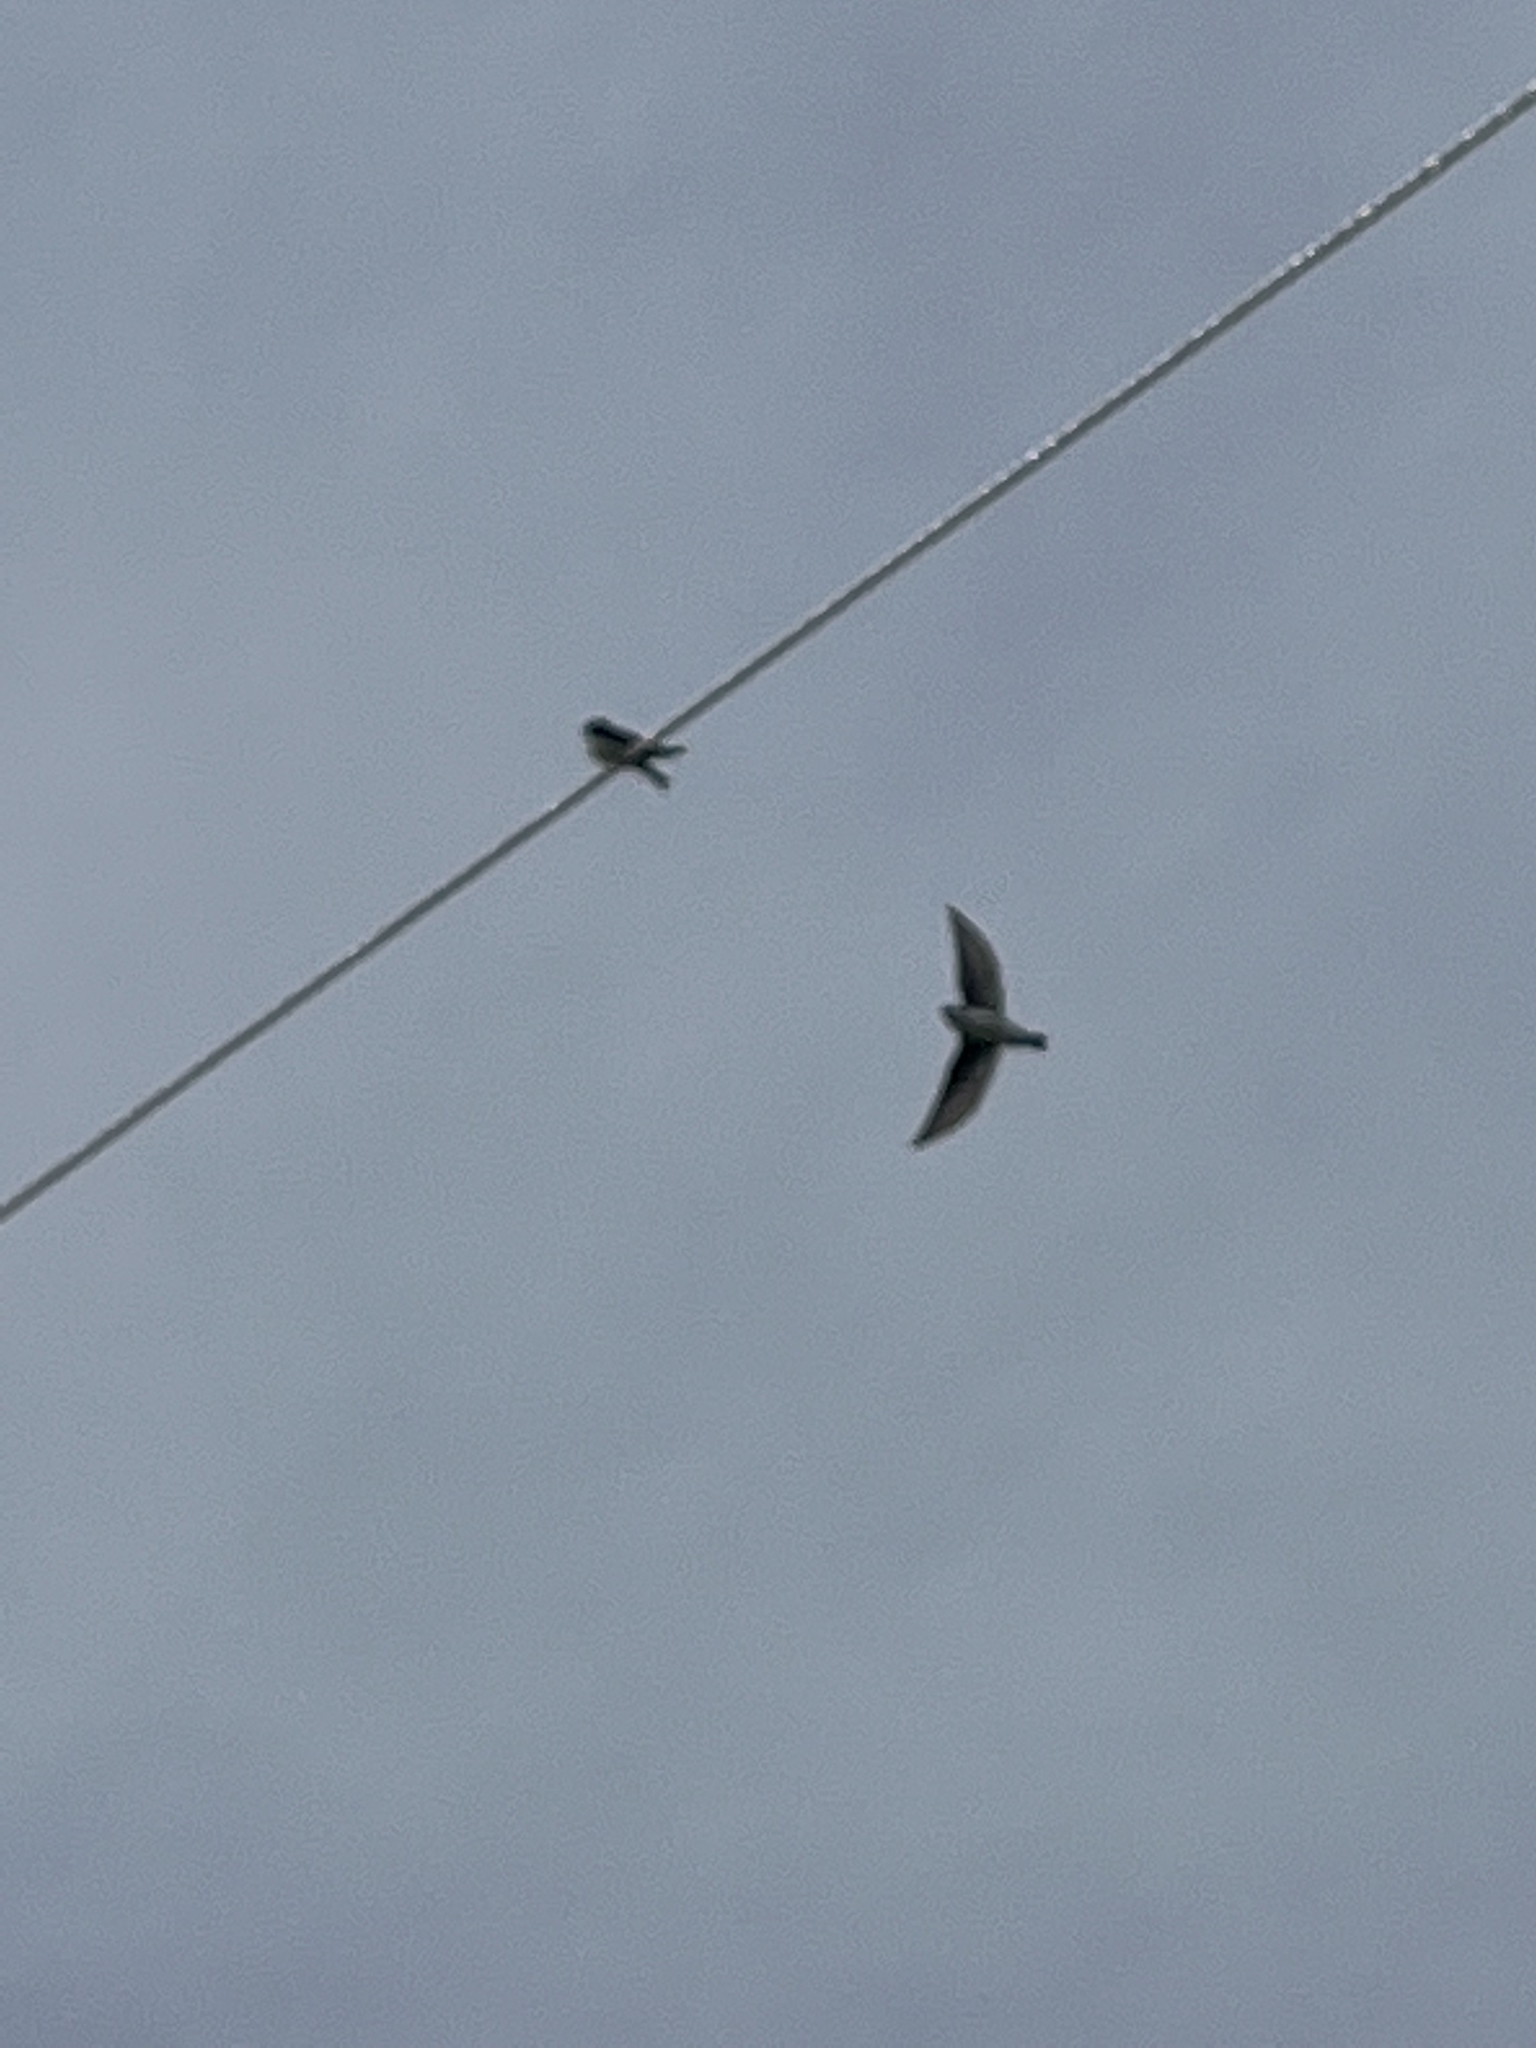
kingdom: Animalia
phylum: Chordata
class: Aves
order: Passeriformes
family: Hirundinidae
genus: Tachycineta
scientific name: Tachycineta bicolor
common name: Tree swallow
